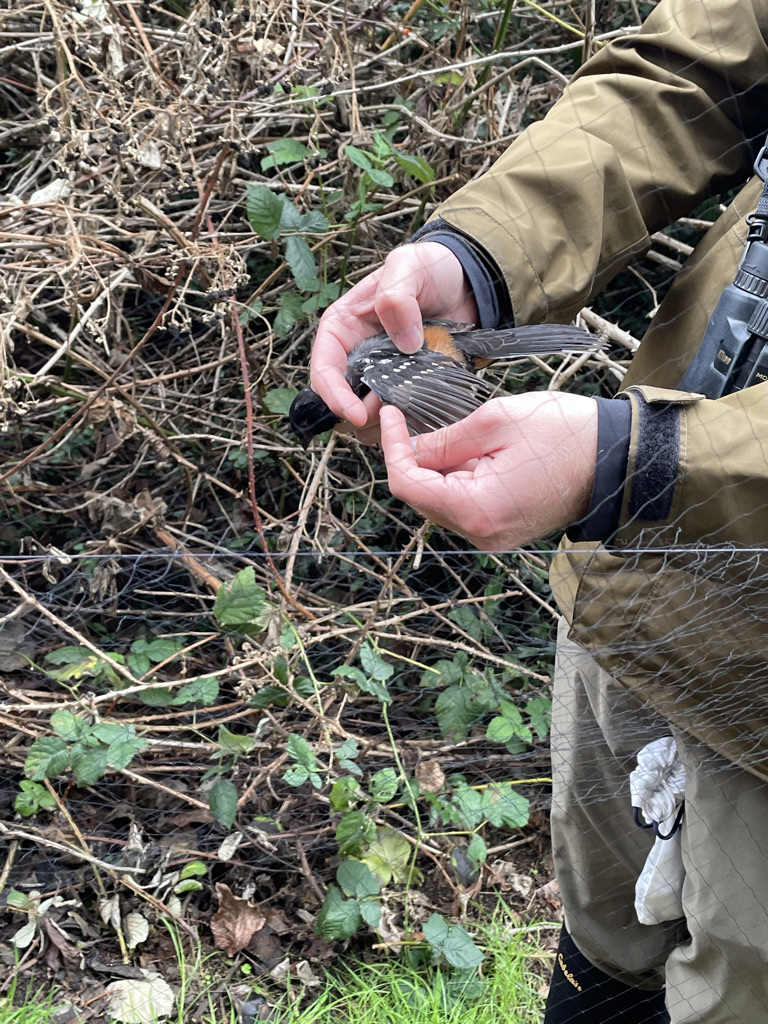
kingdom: Animalia
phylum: Chordata
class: Aves
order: Passeriformes
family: Passerellidae
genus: Pipilo
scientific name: Pipilo maculatus
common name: Spotted towhee
